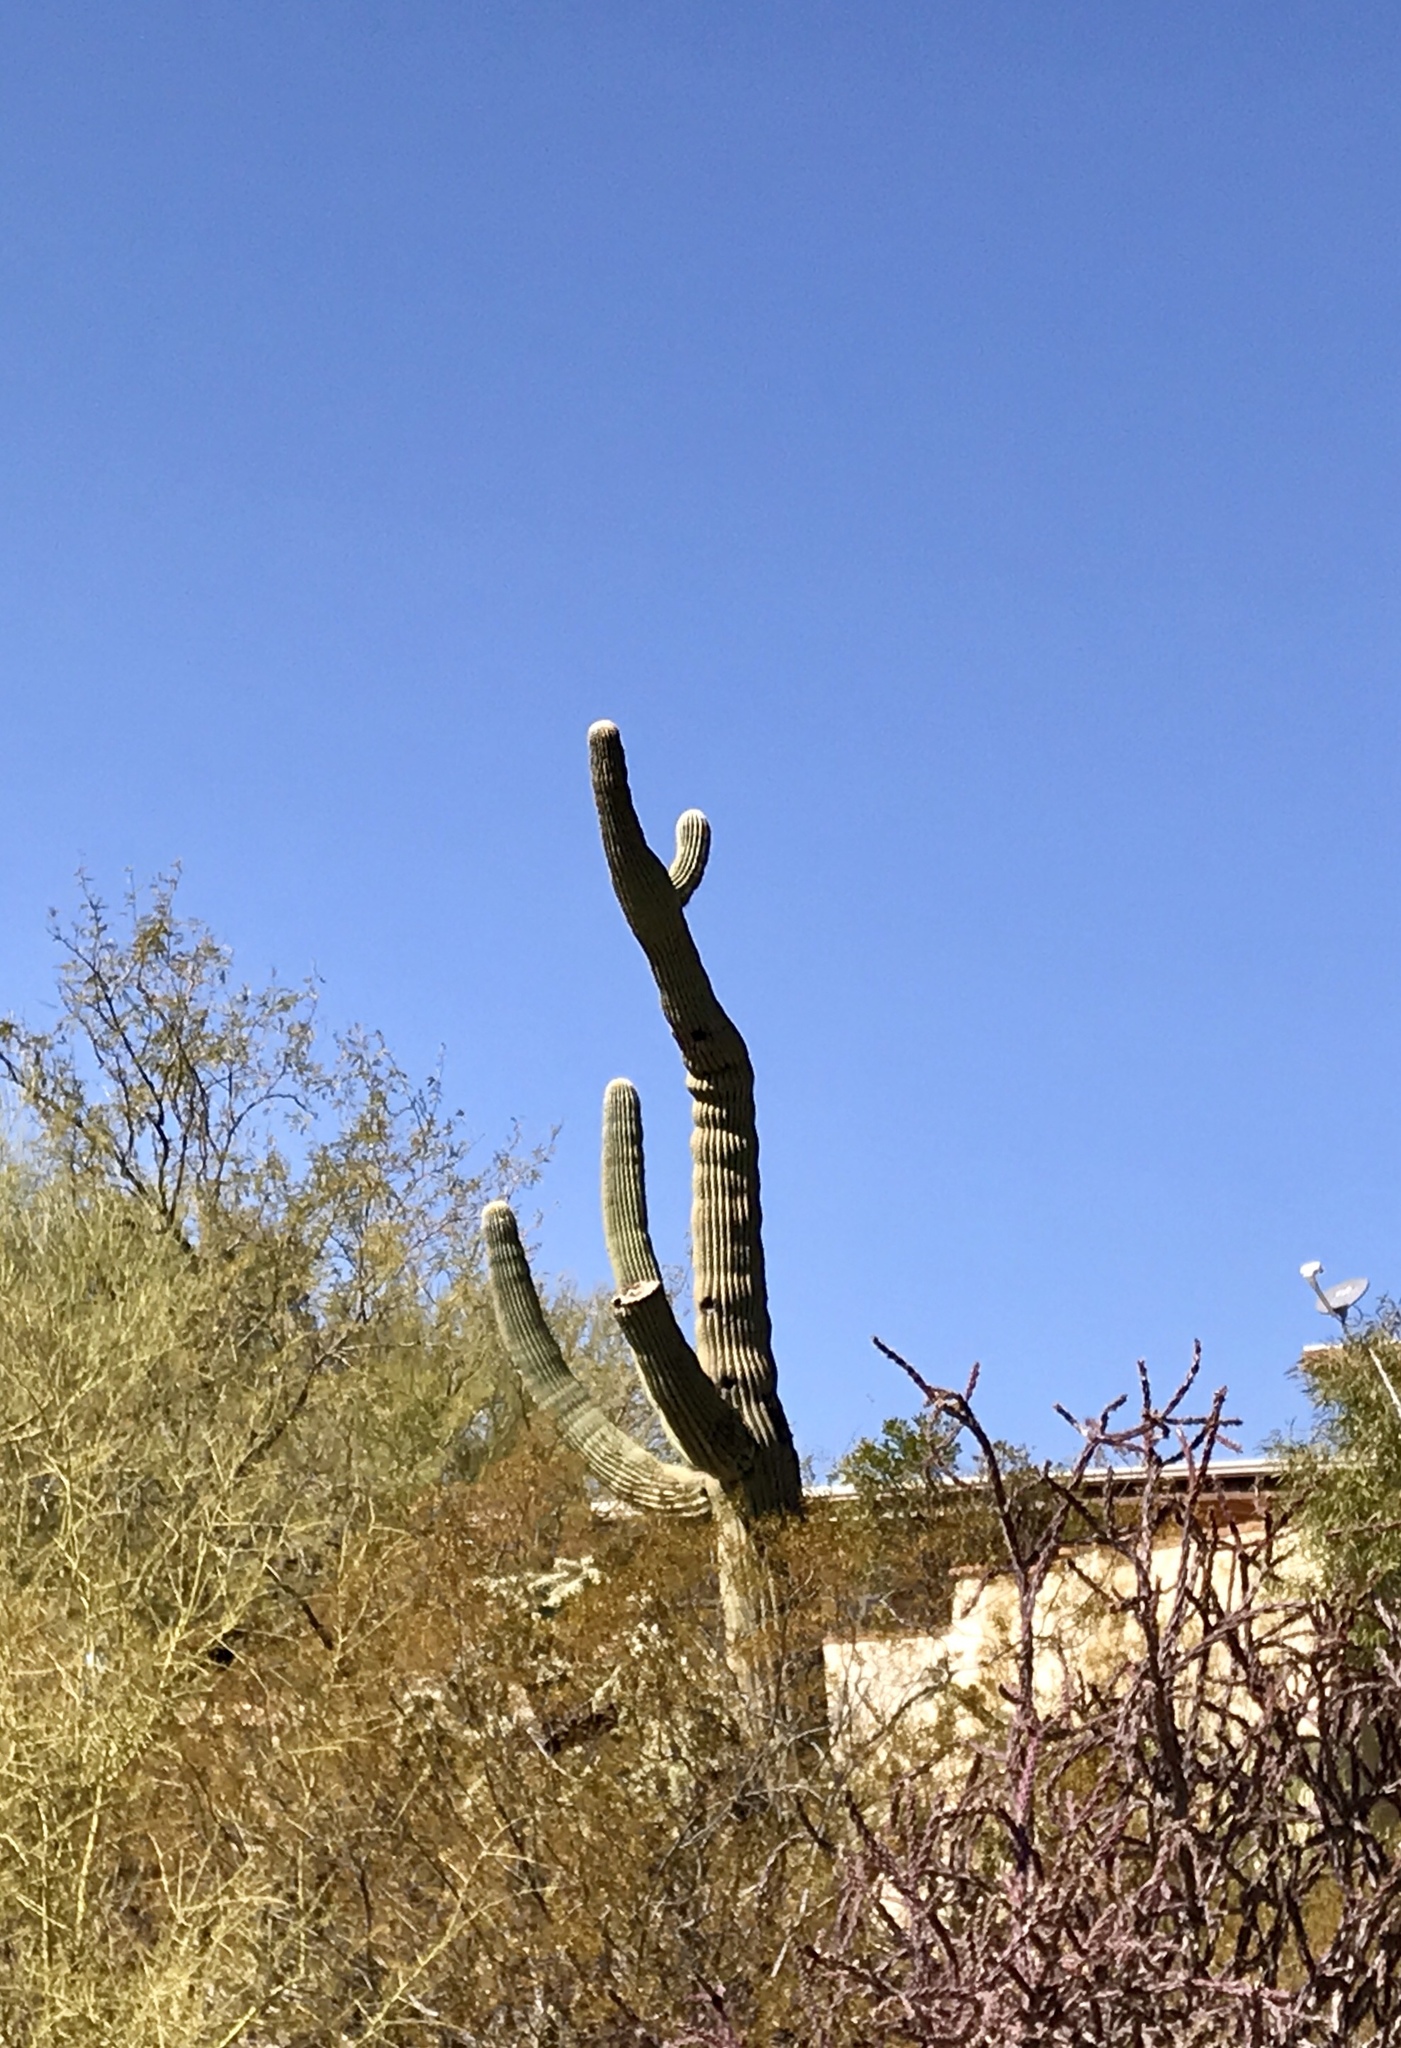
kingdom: Plantae
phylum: Tracheophyta
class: Magnoliopsida
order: Caryophyllales
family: Cactaceae
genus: Carnegiea
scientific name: Carnegiea gigantea
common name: Saguaro
